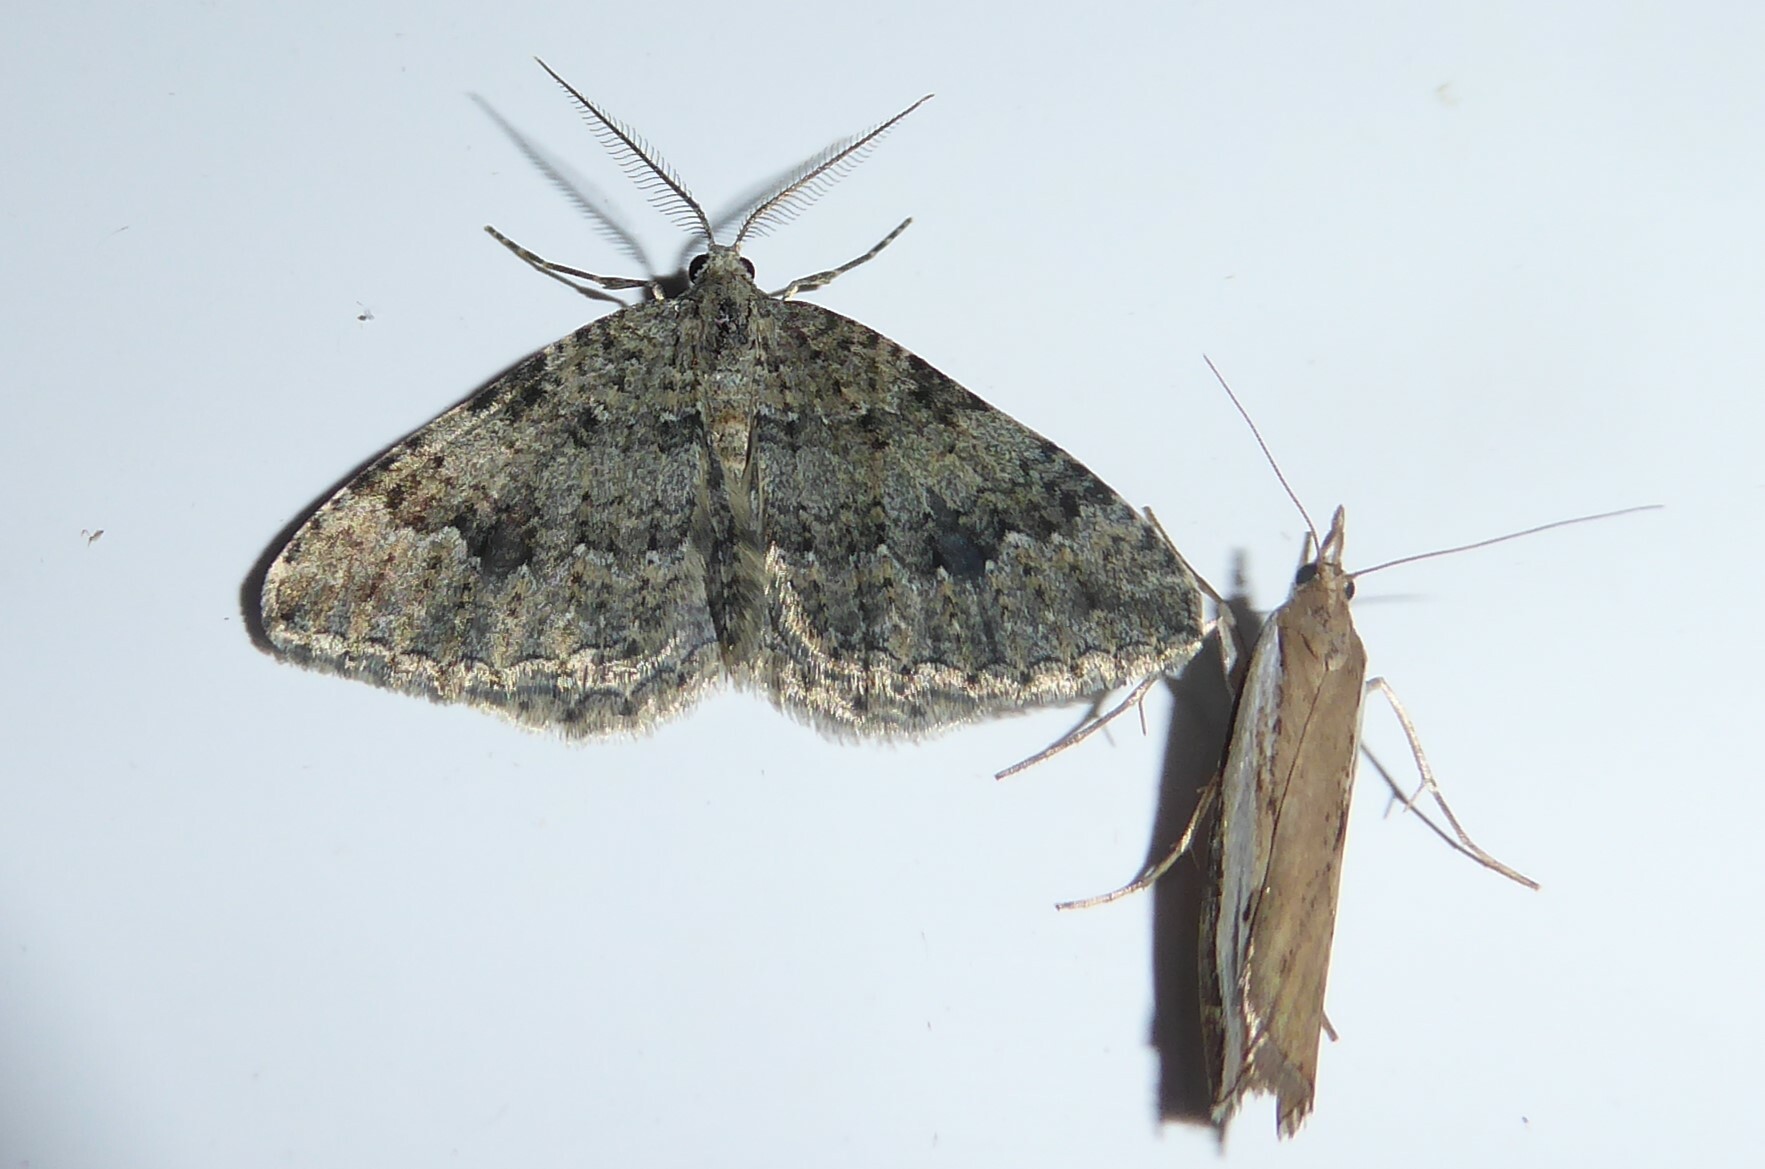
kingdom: Animalia
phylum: Arthropoda
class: Insecta
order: Lepidoptera
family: Geometridae
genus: Helastia
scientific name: Helastia corcularia
